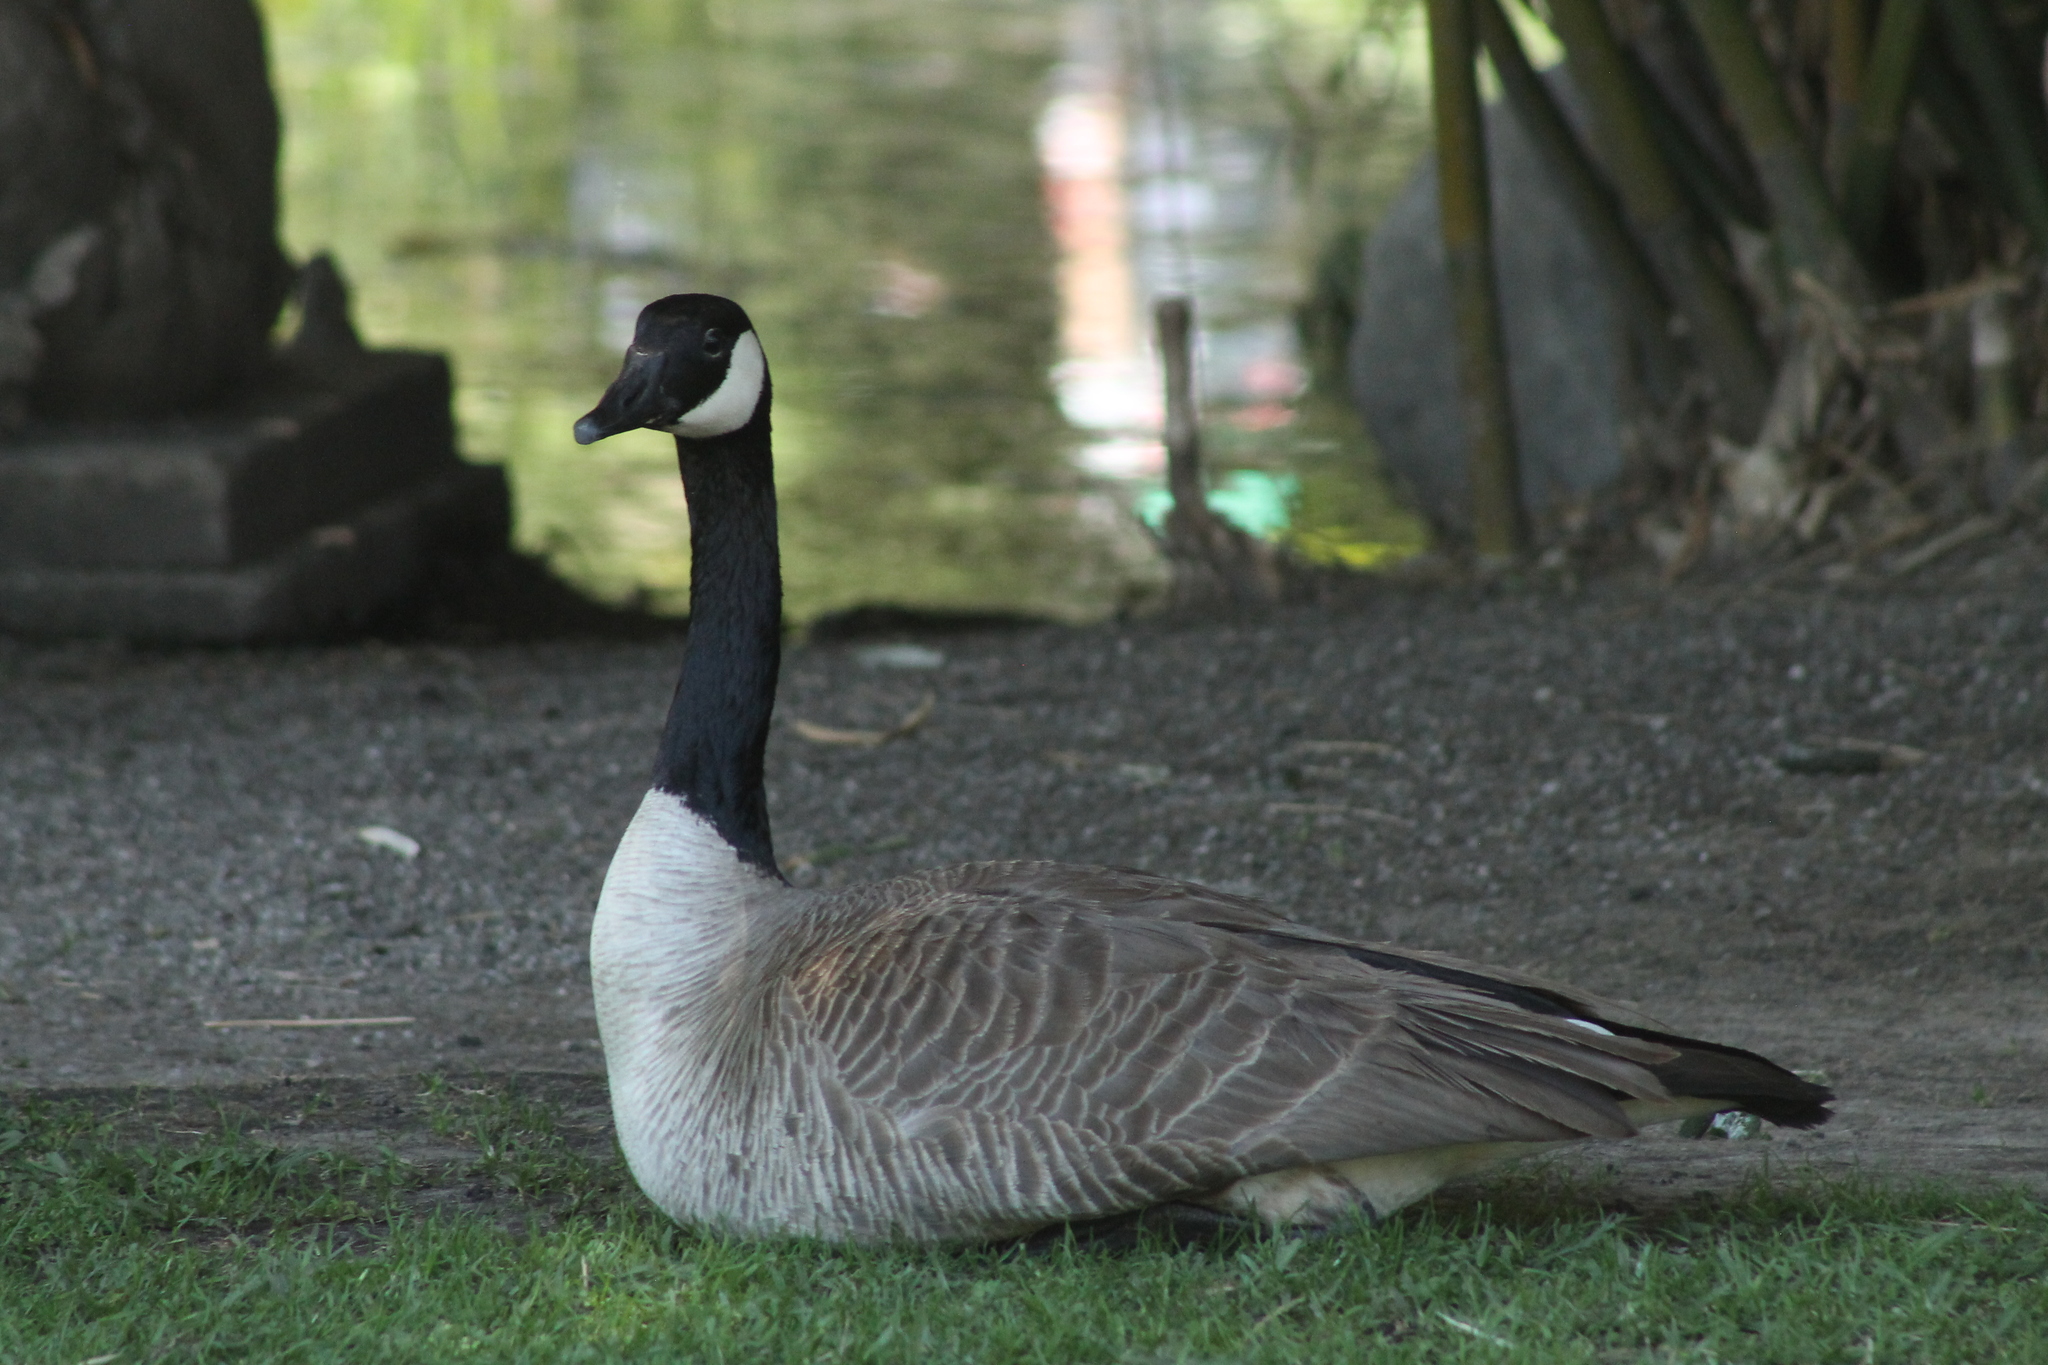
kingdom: Animalia
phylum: Chordata
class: Aves
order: Anseriformes
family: Anatidae
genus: Branta
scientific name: Branta canadensis
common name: Canada goose
